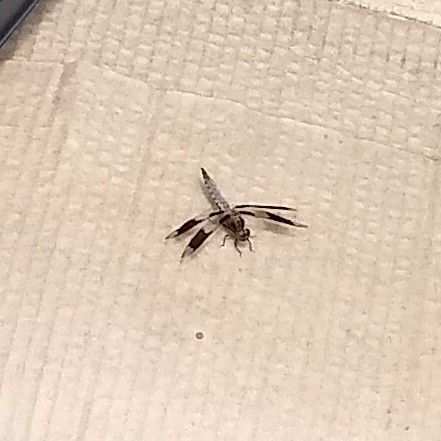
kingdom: Animalia
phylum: Arthropoda
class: Insecta
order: Odonata
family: Libellulidae
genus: Plathemis
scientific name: Plathemis lydia
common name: Common whitetail
